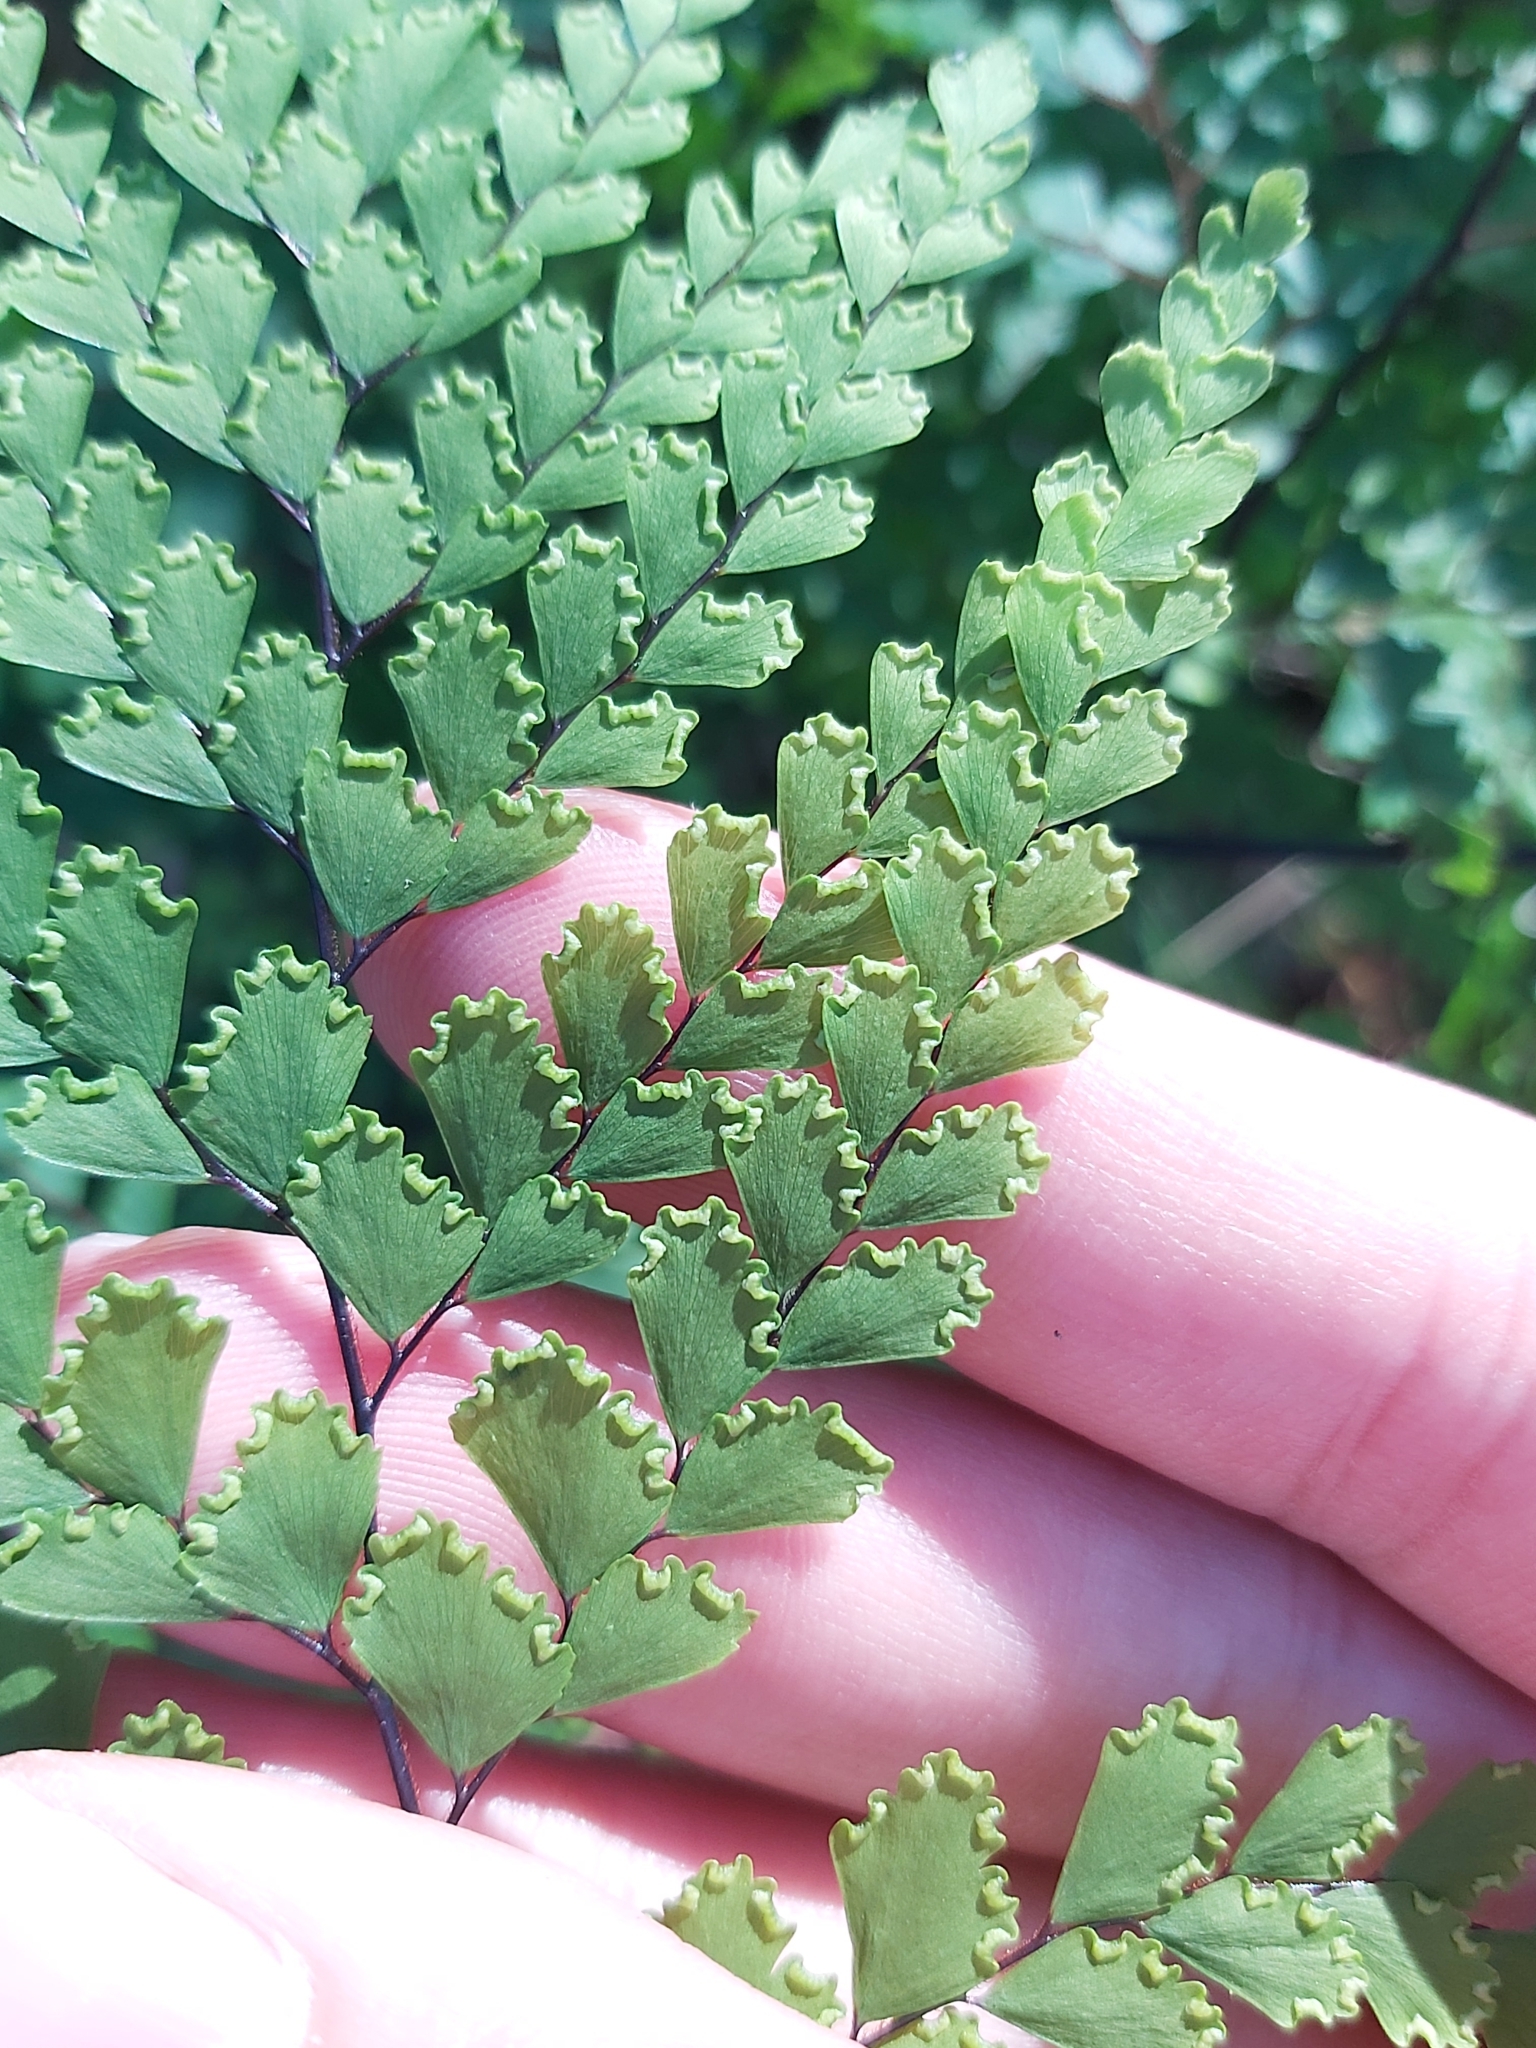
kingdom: Plantae
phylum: Tracheophyta
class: Polypodiopsida
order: Polypodiales
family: Pteridaceae
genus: Adiantum
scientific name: Adiantum formosum
